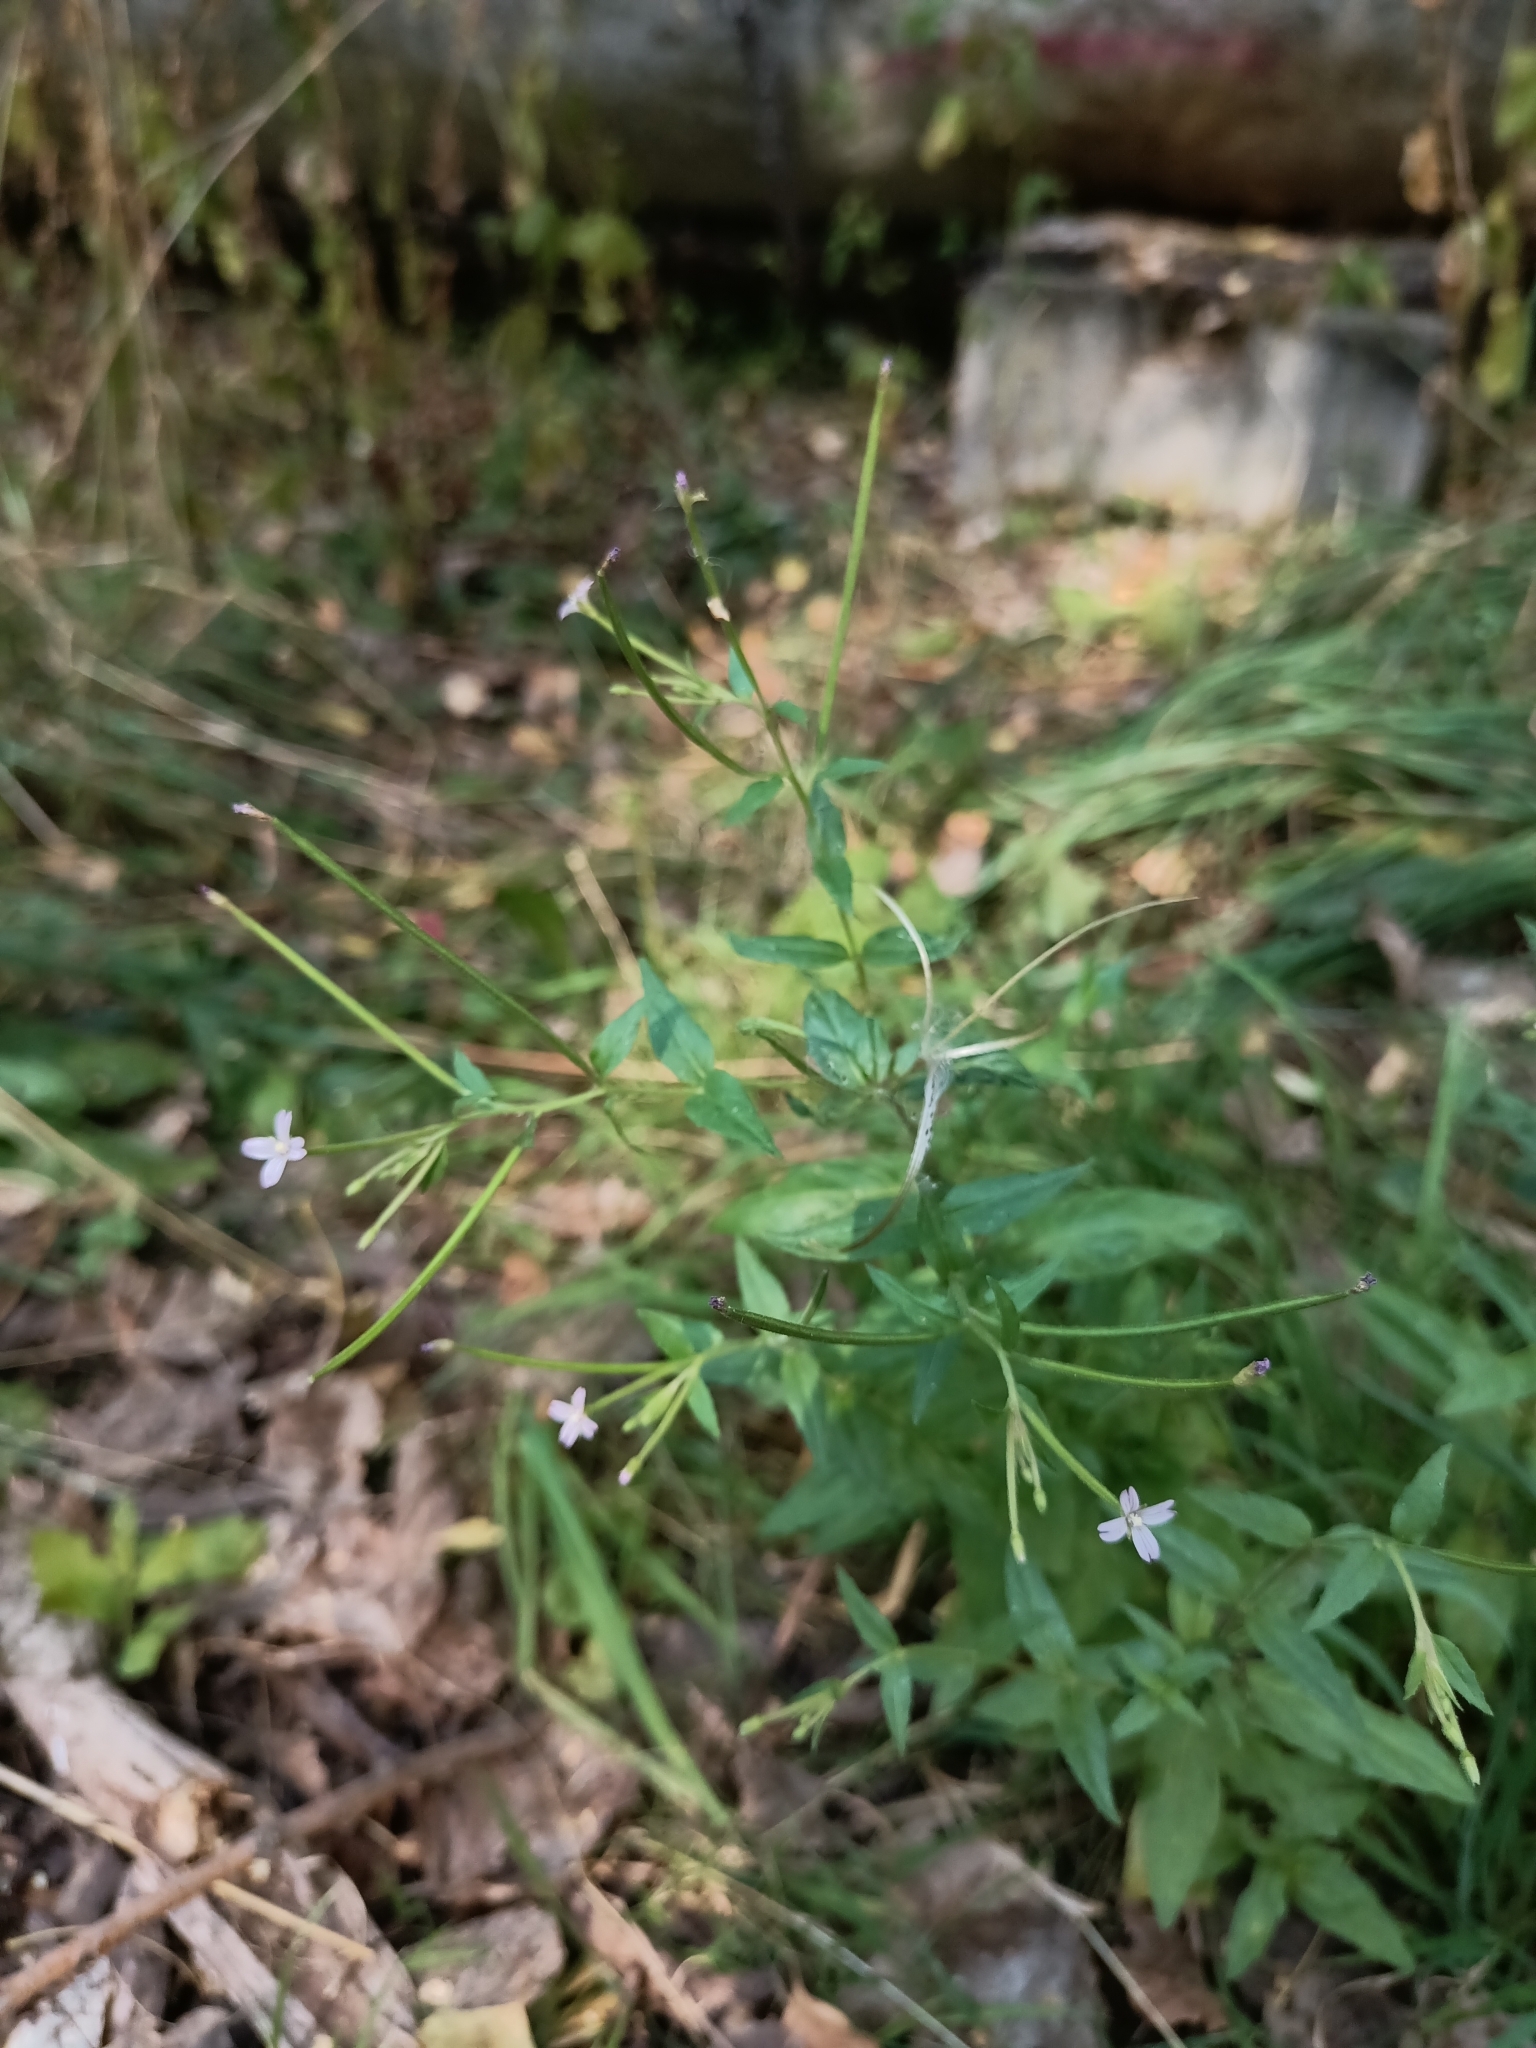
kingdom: Plantae
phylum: Tracheophyta
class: Magnoliopsida
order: Myrtales
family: Onagraceae
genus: Epilobium
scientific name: Epilobium ciliatum
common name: American willowherb
